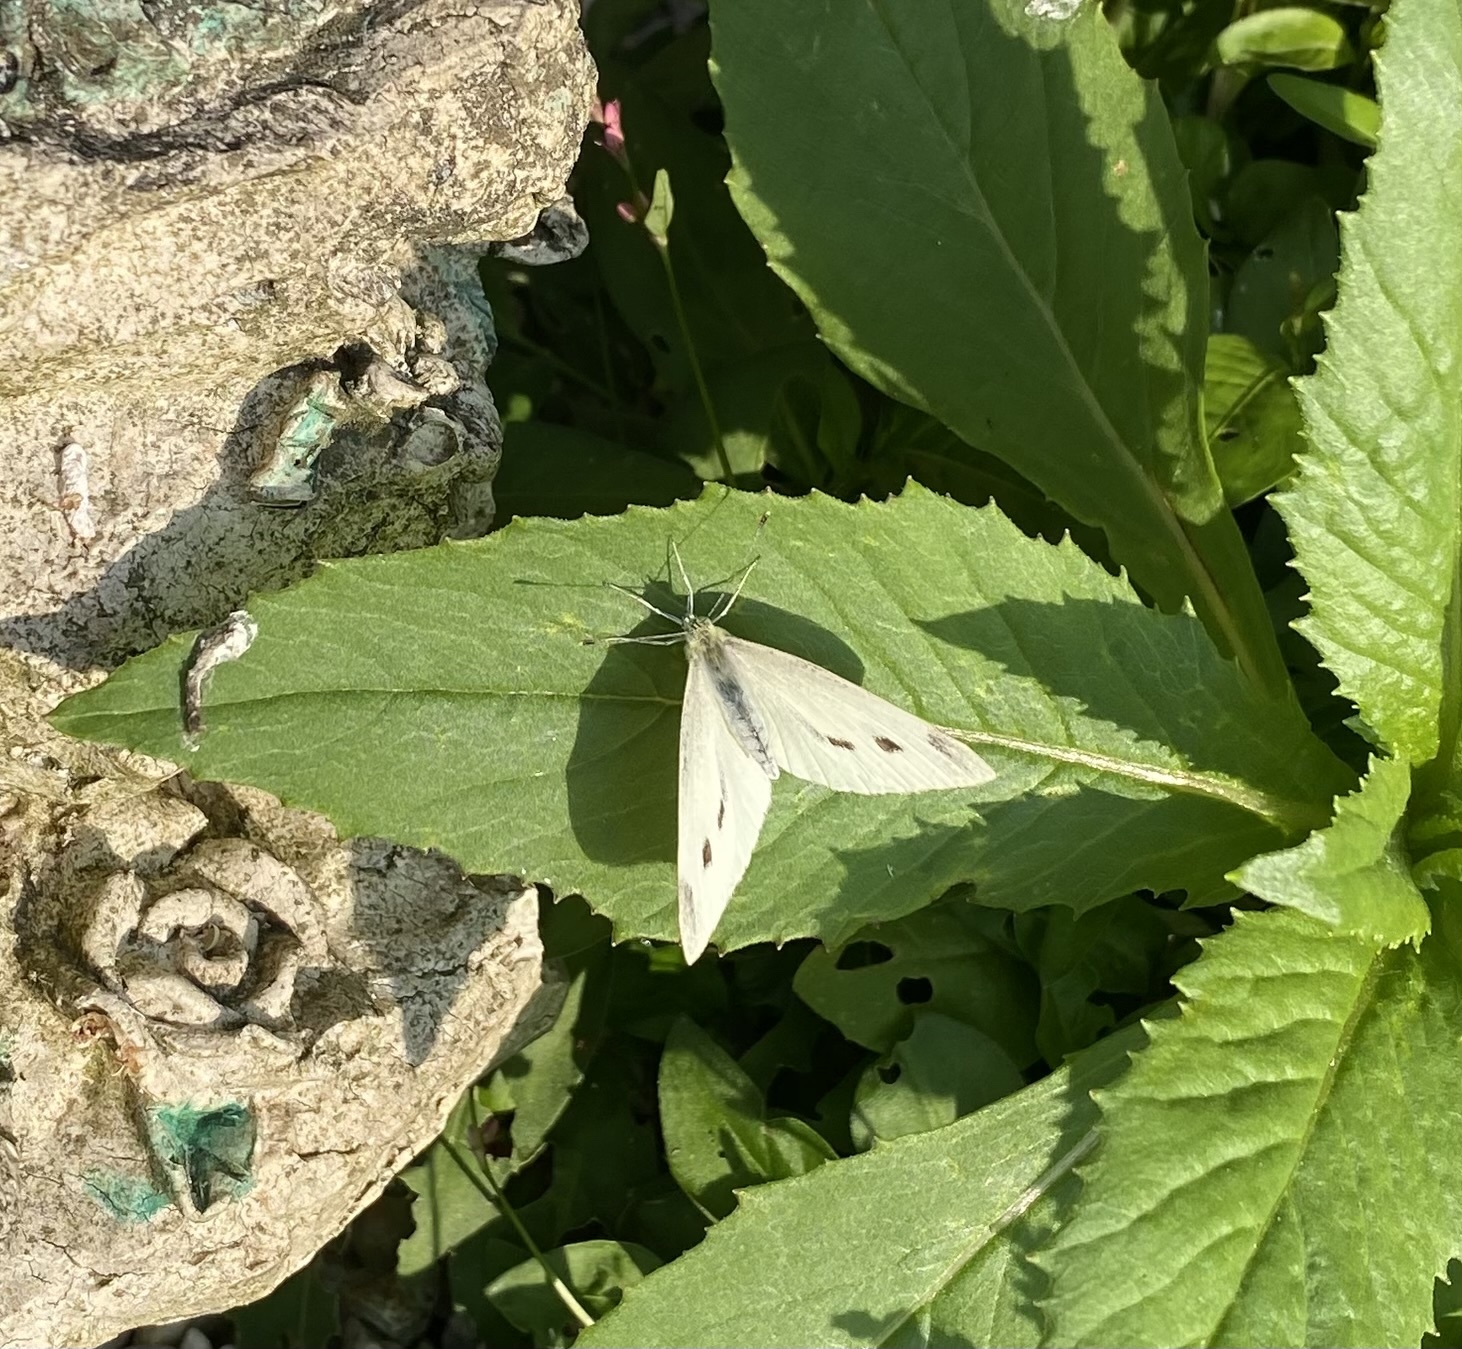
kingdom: Animalia
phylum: Arthropoda
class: Insecta
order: Lepidoptera
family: Pieridae
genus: Pieris
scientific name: Pieris rapae
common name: Small white
